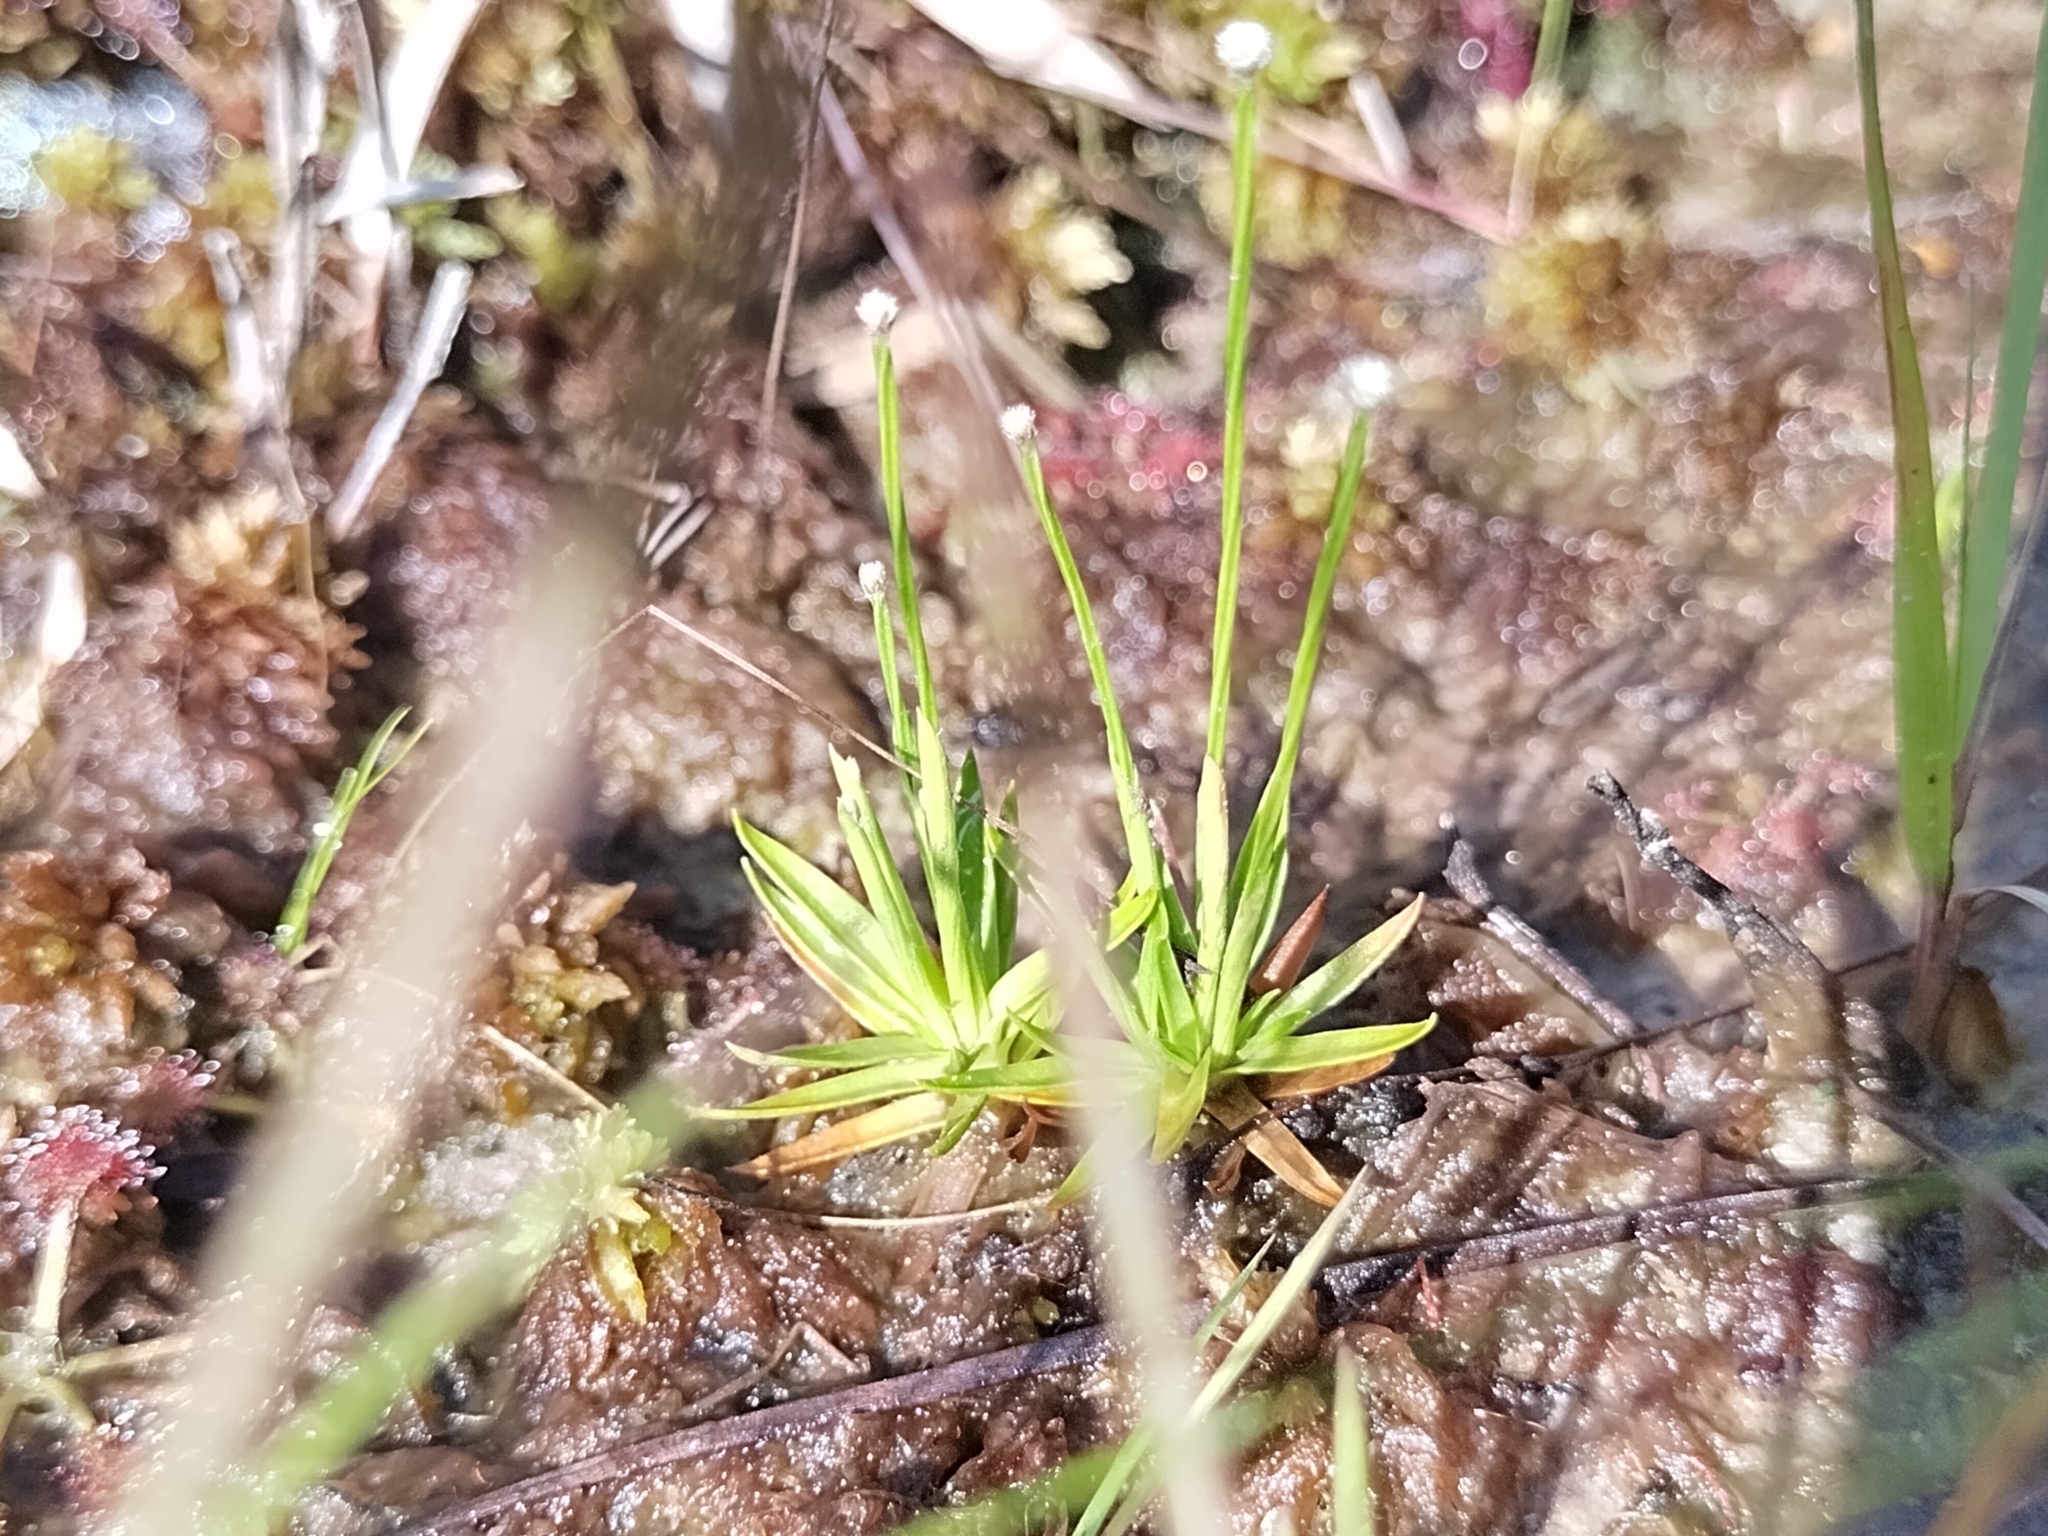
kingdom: Plantae
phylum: Tracheophyta
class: Liliopsida
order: Poales
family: Eriocaulaceae
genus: Paepalanthus
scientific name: Paepalanthus digynus
